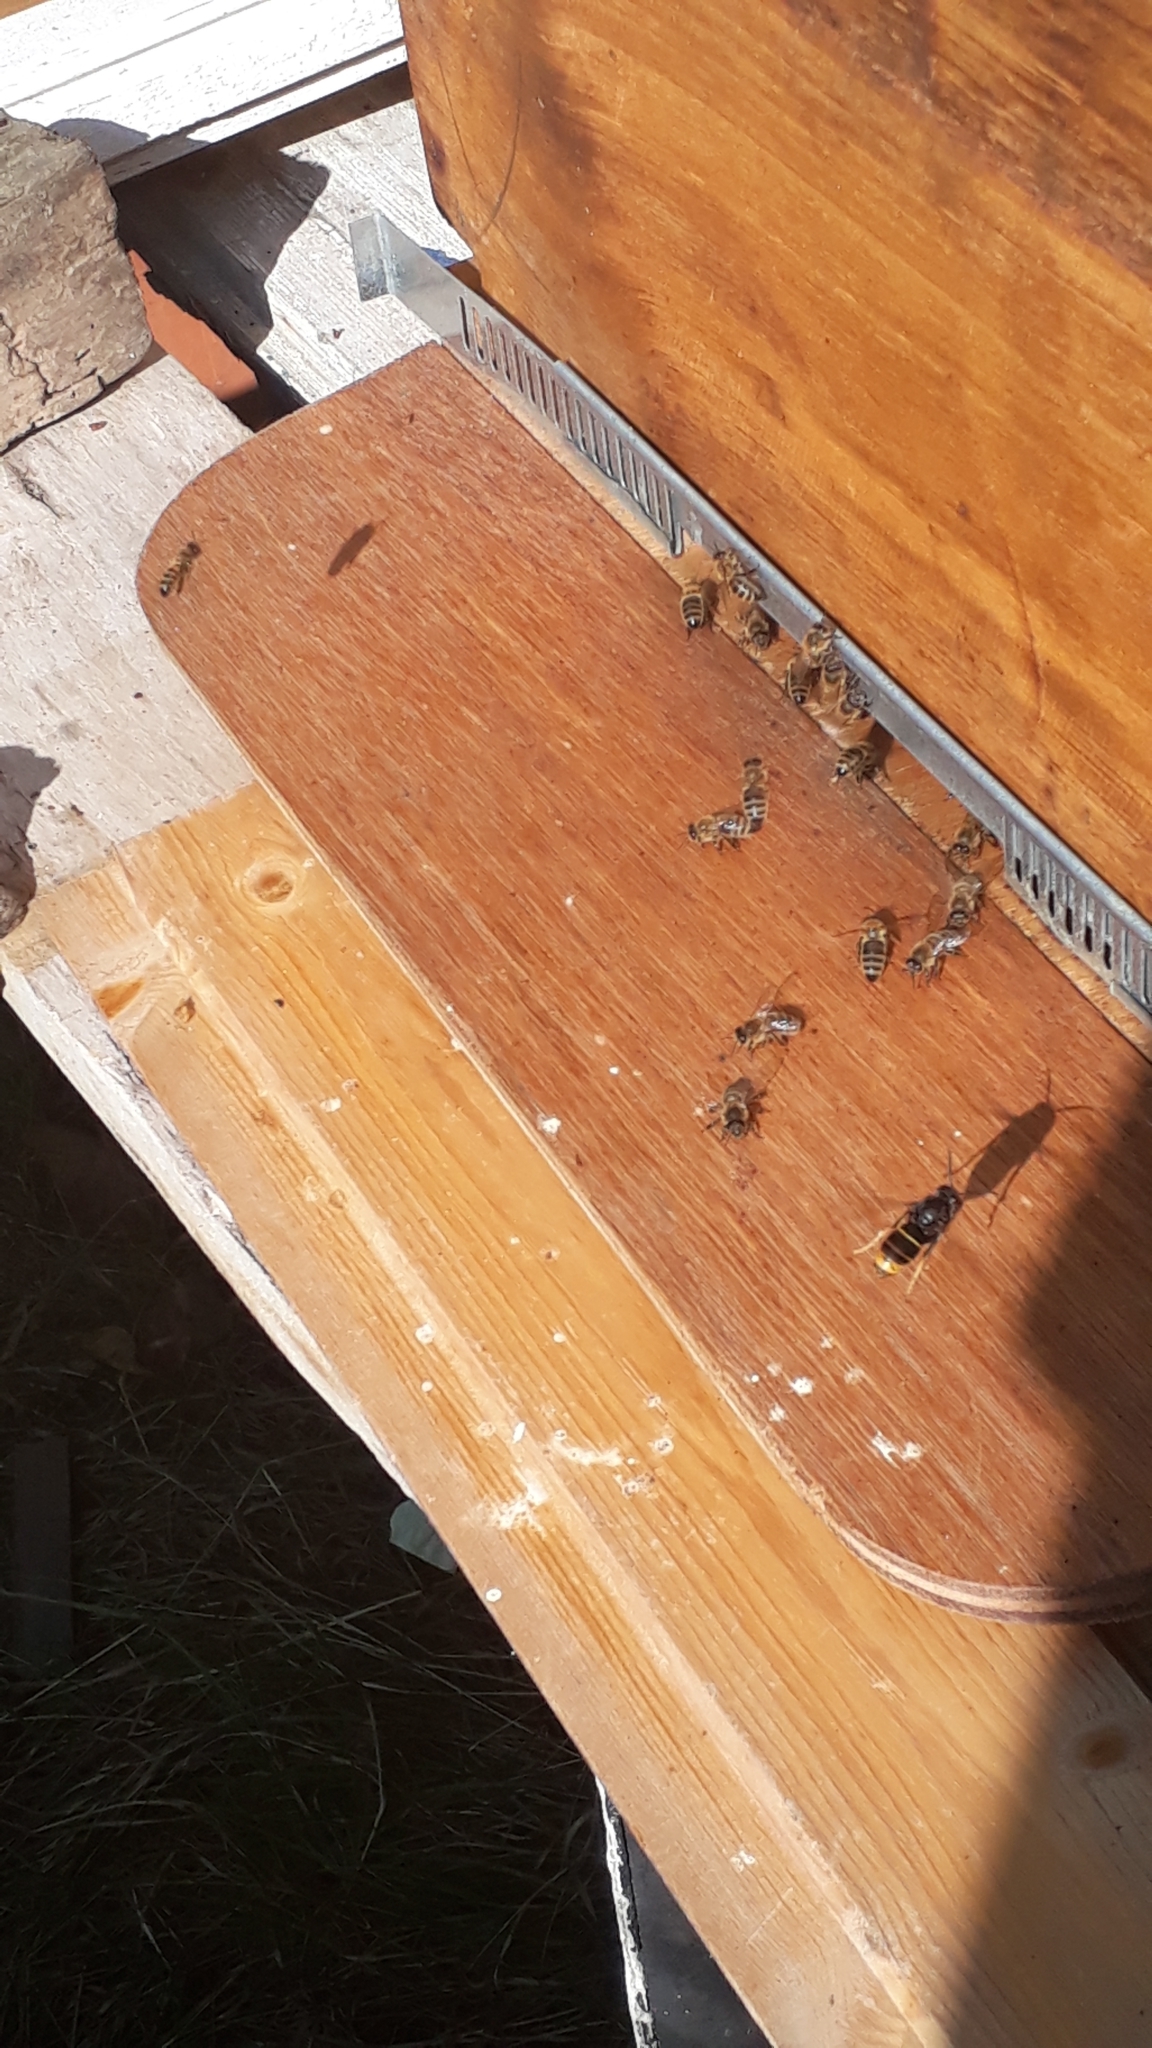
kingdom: Animalia
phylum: Arthropoda
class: Insecta
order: Hymenoptera
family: Vespidae
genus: Vespa
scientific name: Vespa velutina
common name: Asian hornet
